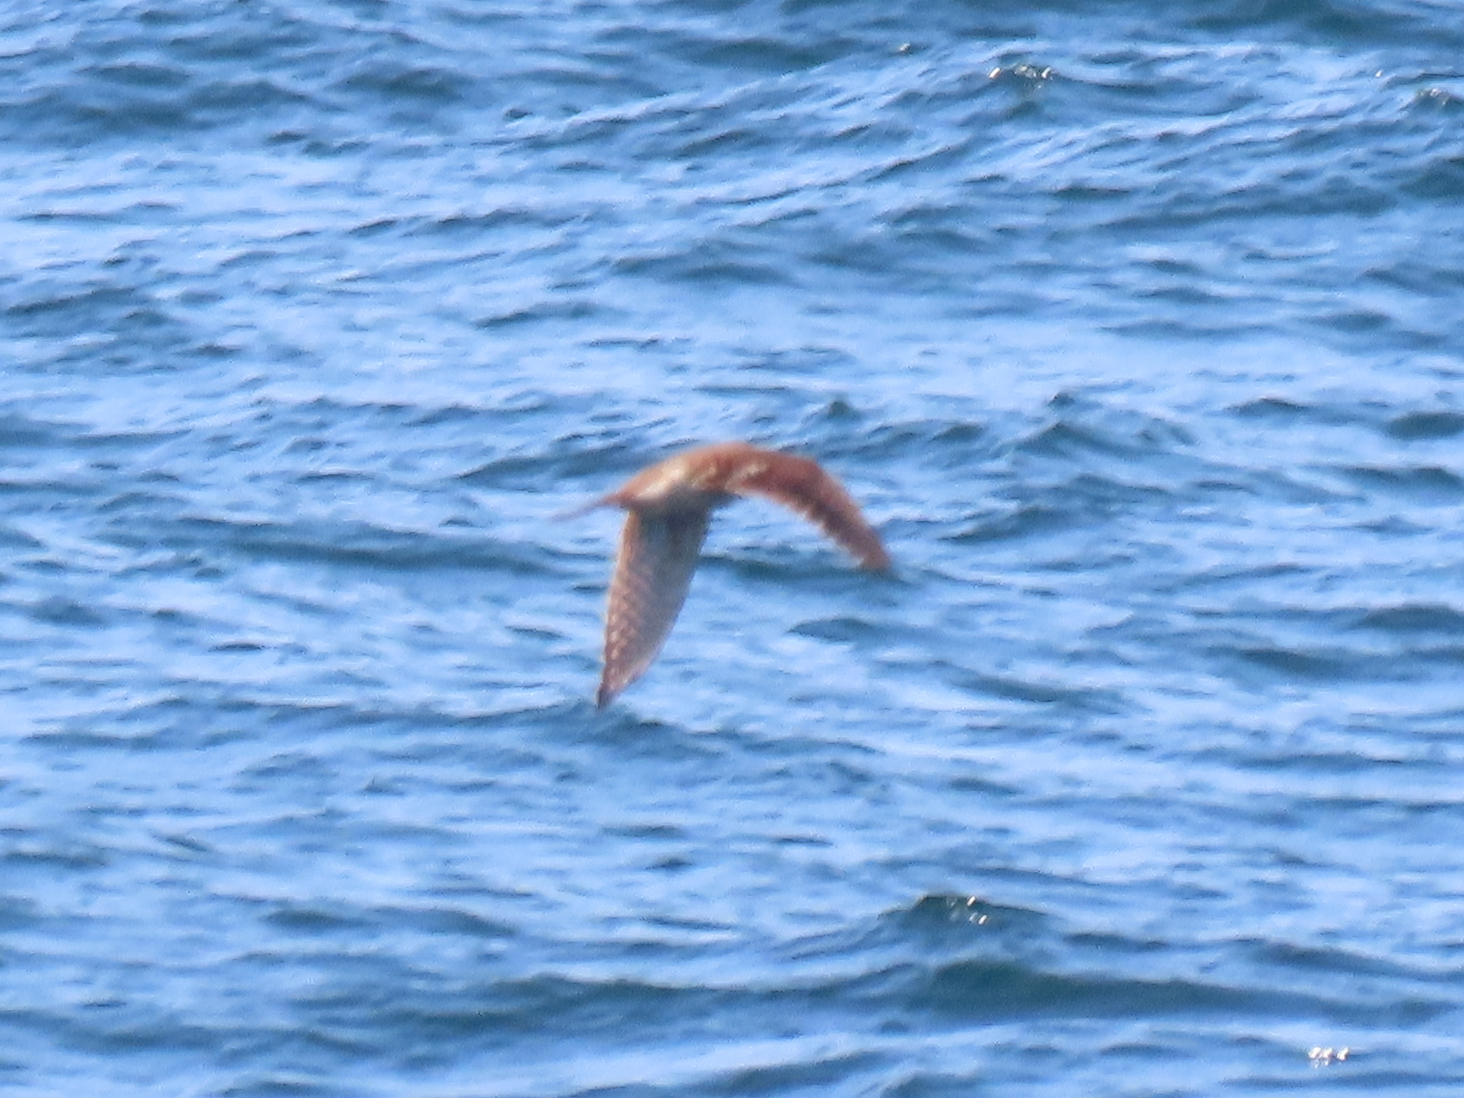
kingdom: Animalia
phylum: Chordata
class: Aves
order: Falconiformes
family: Falconidae
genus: Falco
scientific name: Falco sparverius
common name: American kestrel
